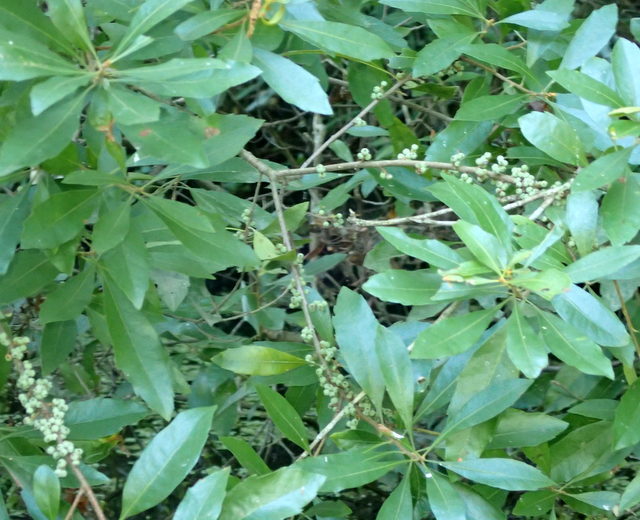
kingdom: Plantae
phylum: Tracheophyta
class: Magnoliopsida
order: Fagales
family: Myricaceae
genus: Morella
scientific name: Morella cerifera
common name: Wax myrtle
